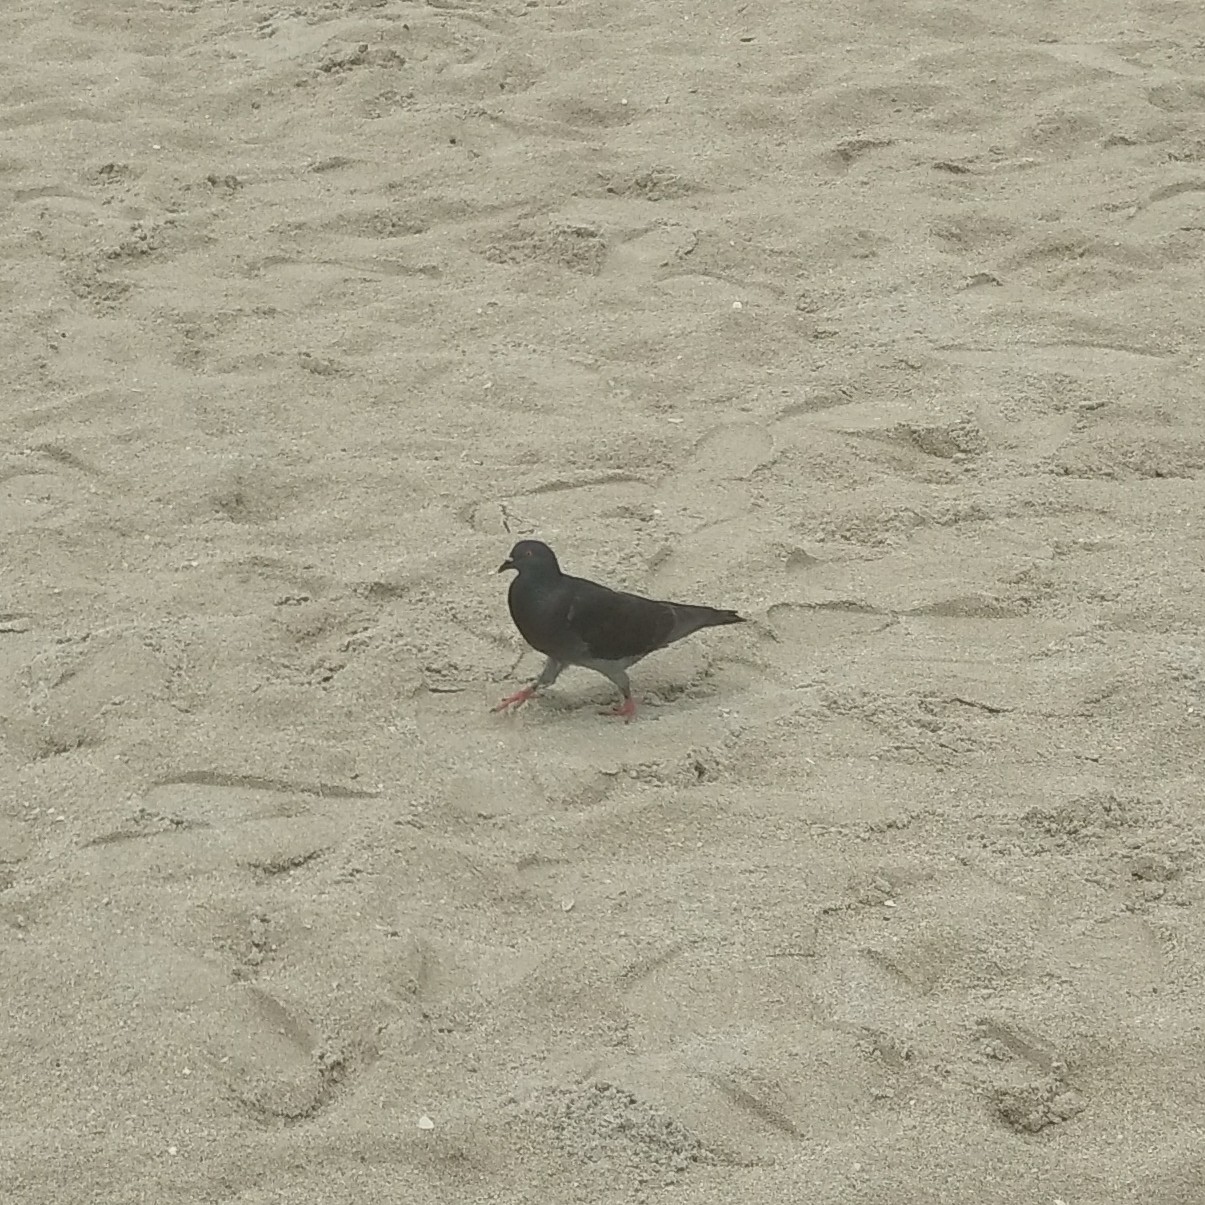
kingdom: Animalia
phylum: Chordata
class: Aves
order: Columbiformes
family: Columbidae
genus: Columba
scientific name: Columba livia
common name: Rock pigeon
